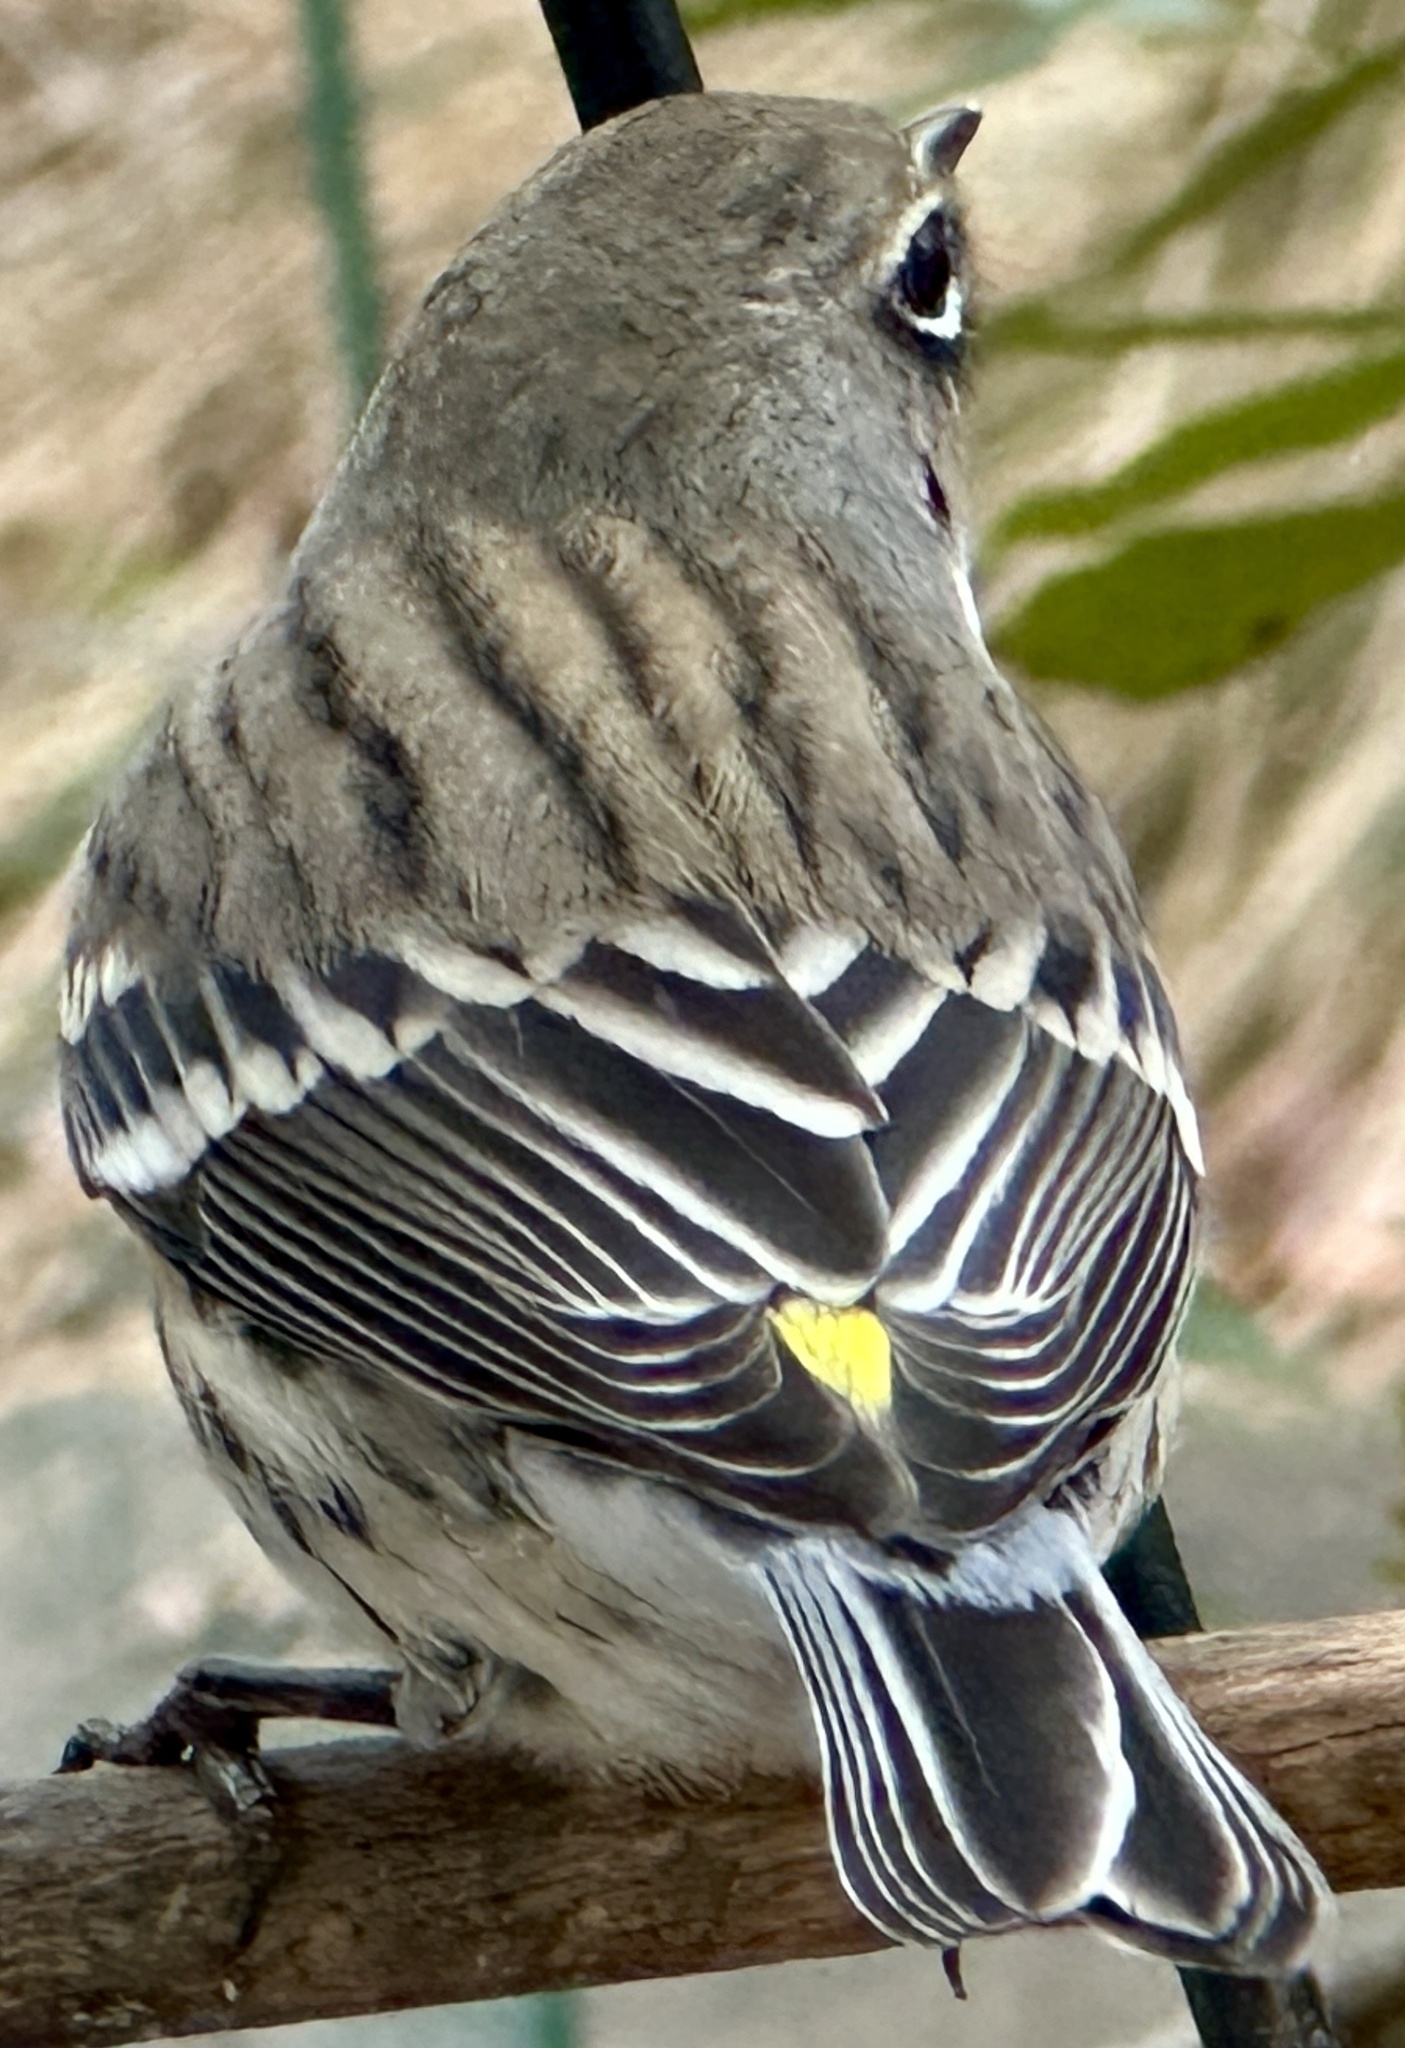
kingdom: Animalia
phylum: Chordata
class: Aves
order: Passeriformes
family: Parulidae
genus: Setophaga
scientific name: Setophaga coronata
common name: Myrtle warbler
